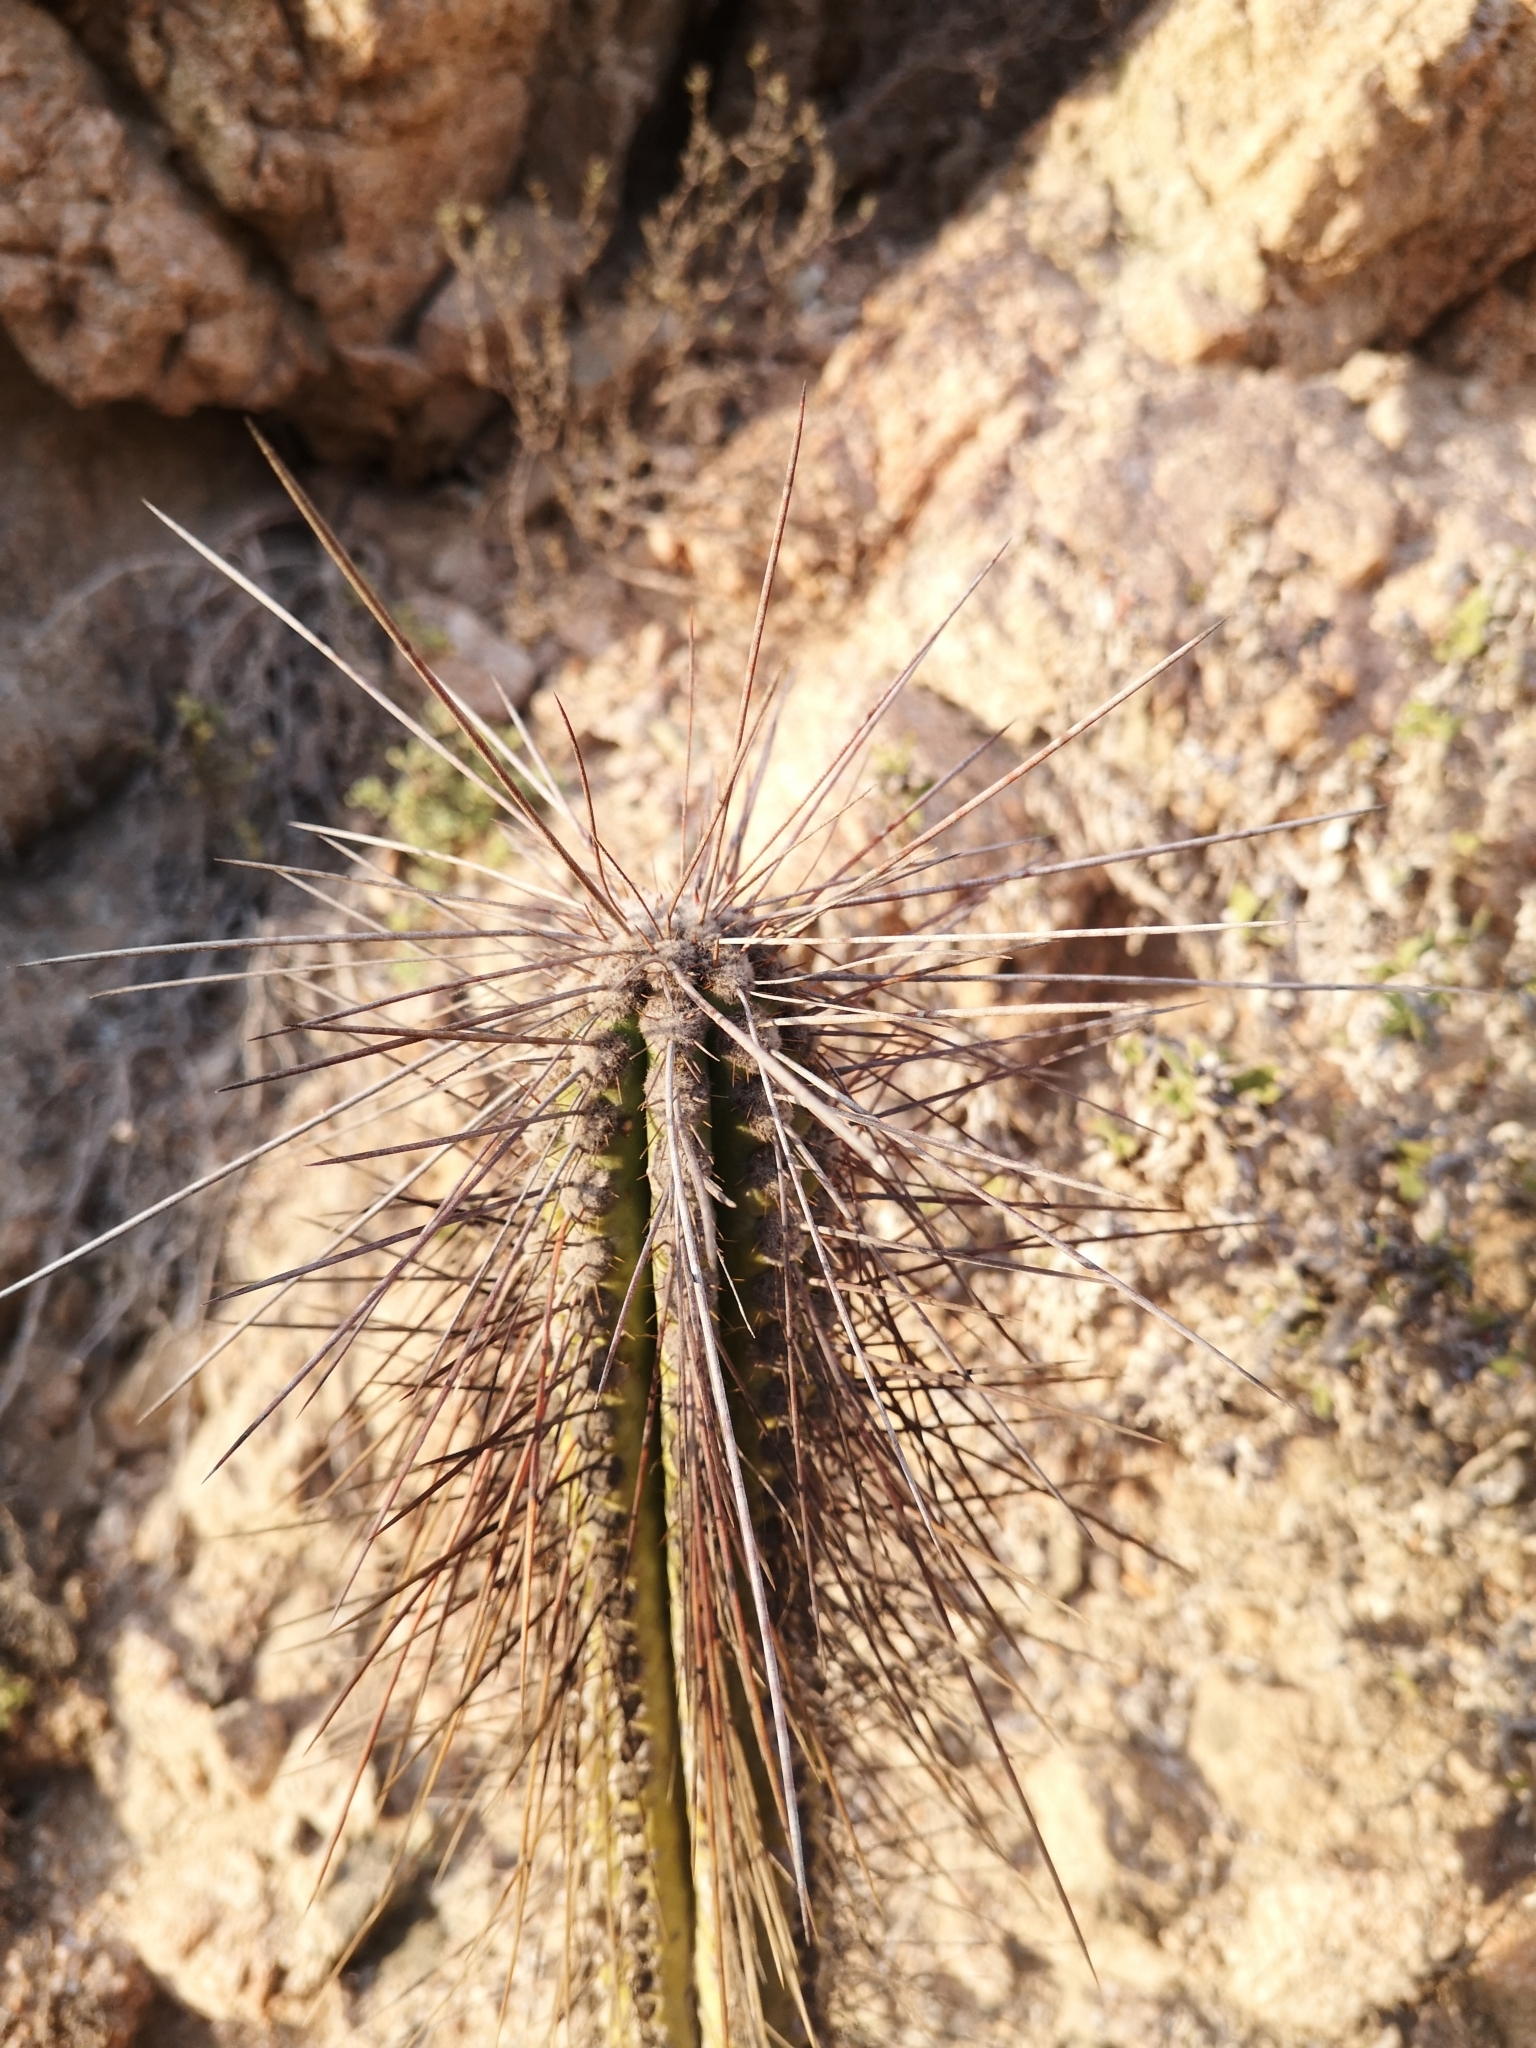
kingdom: Plantae
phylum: Tracheophyta
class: Magnoliopsida
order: Caryophyllales
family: Cactaceae
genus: Eulychnia
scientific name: Eulychnia iquiquensis
